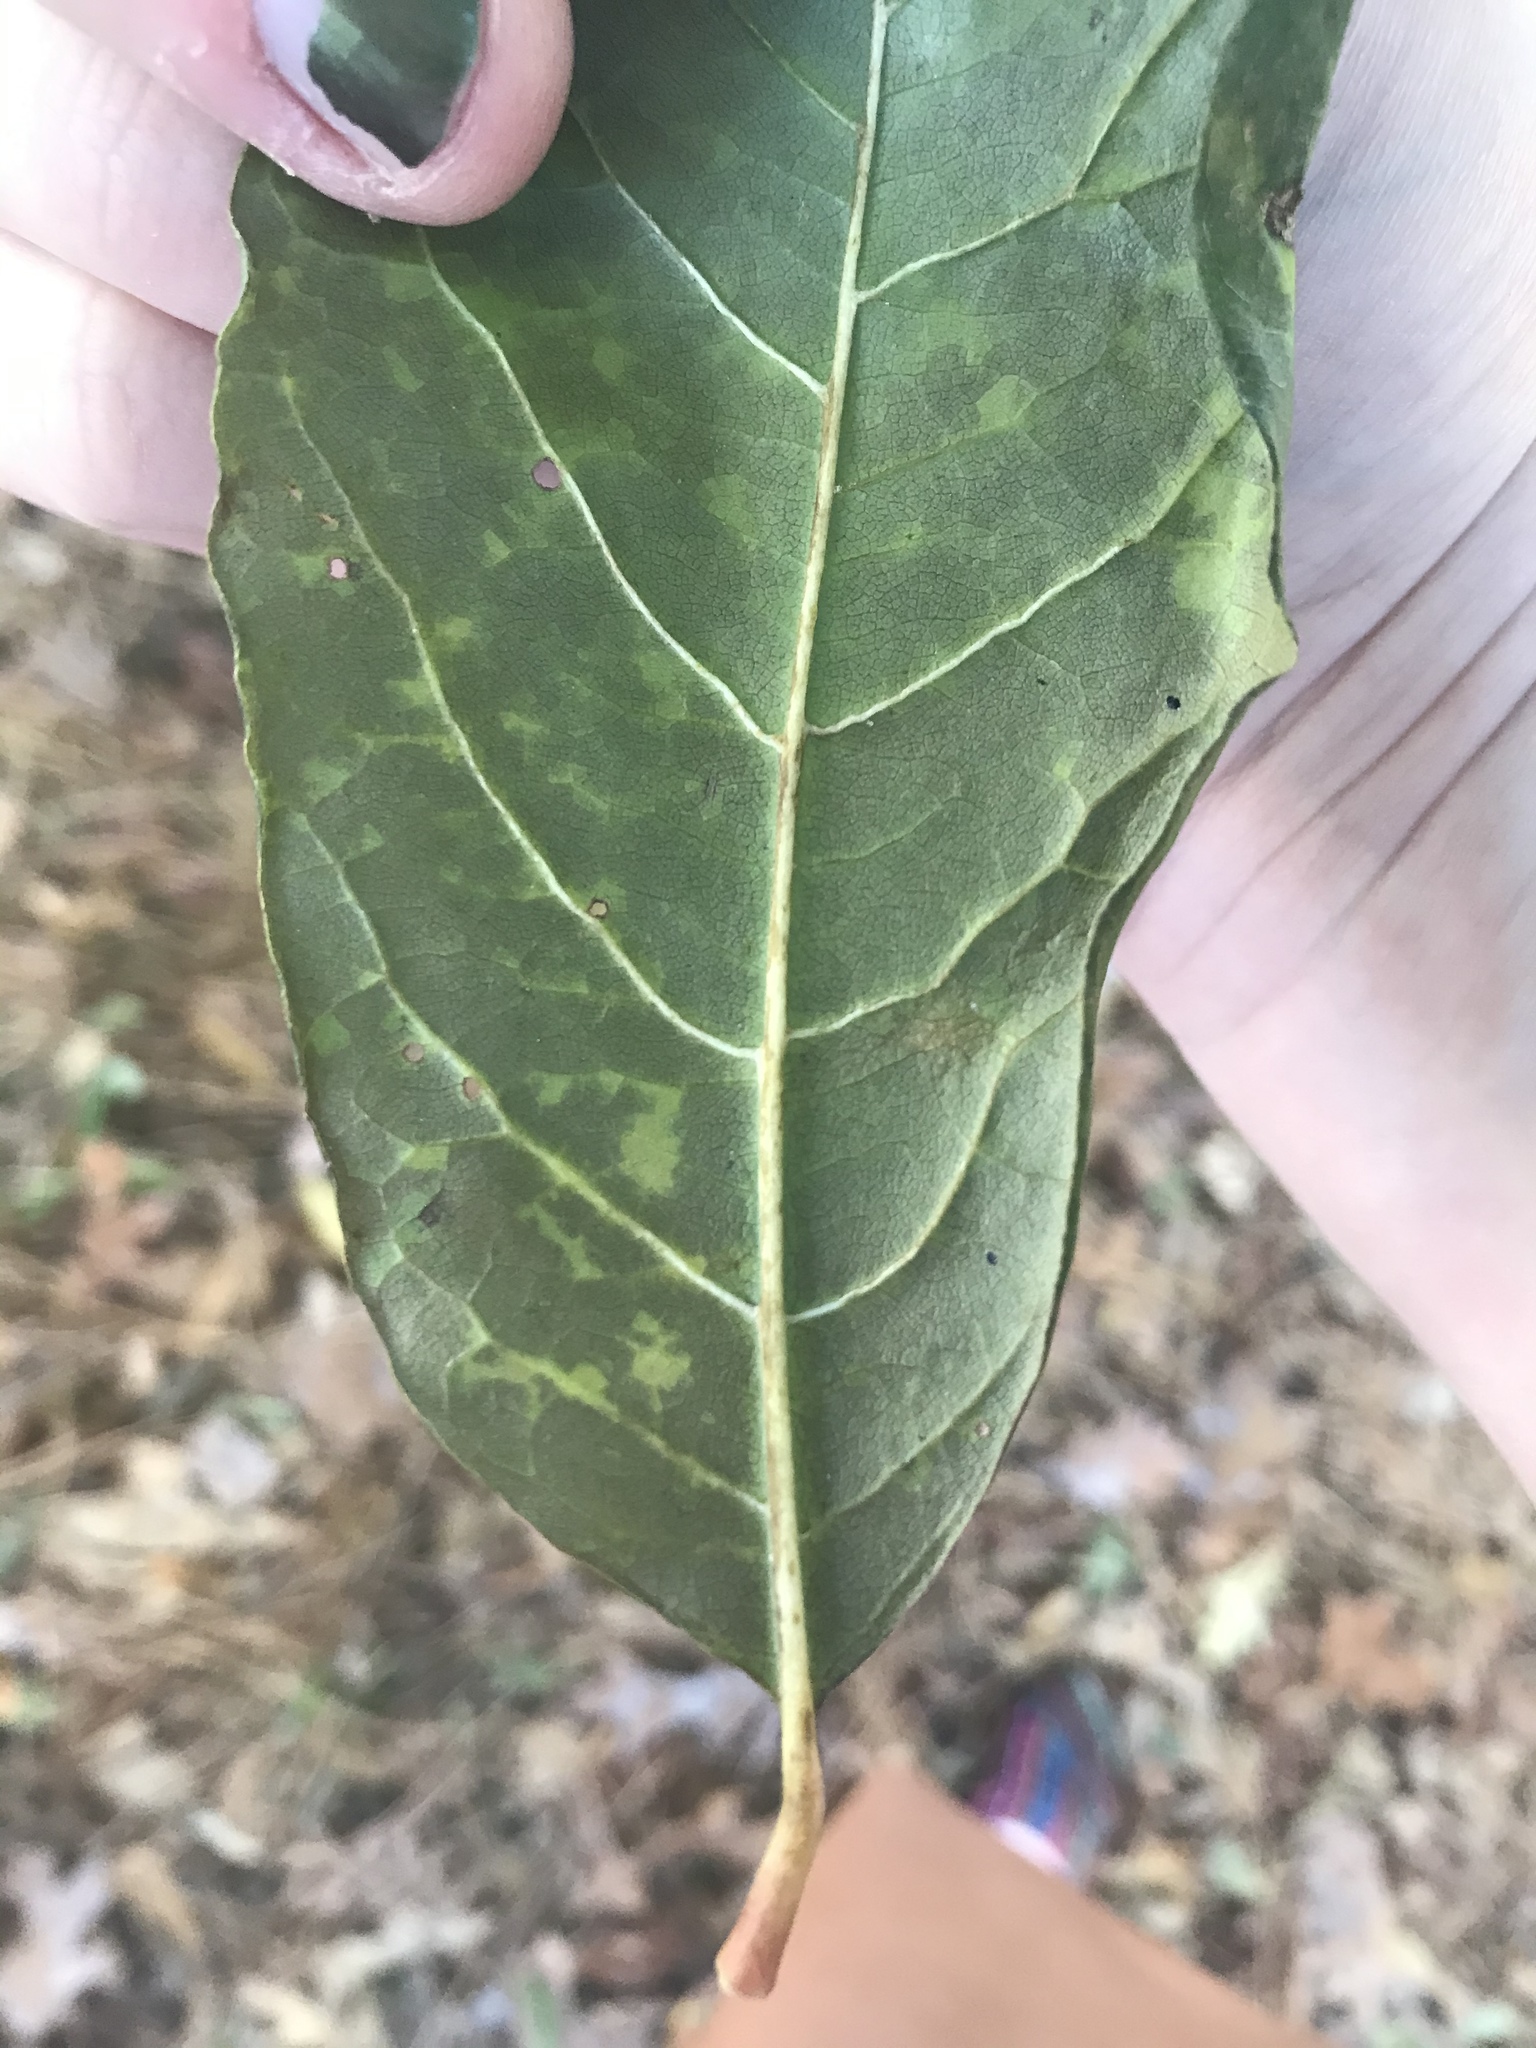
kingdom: Plantae
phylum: Tracheophyta
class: Magnoliopsida
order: Cornales
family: Nyssaceae
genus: Nyssa
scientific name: Nyssa sylvatica
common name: Black tupelo
